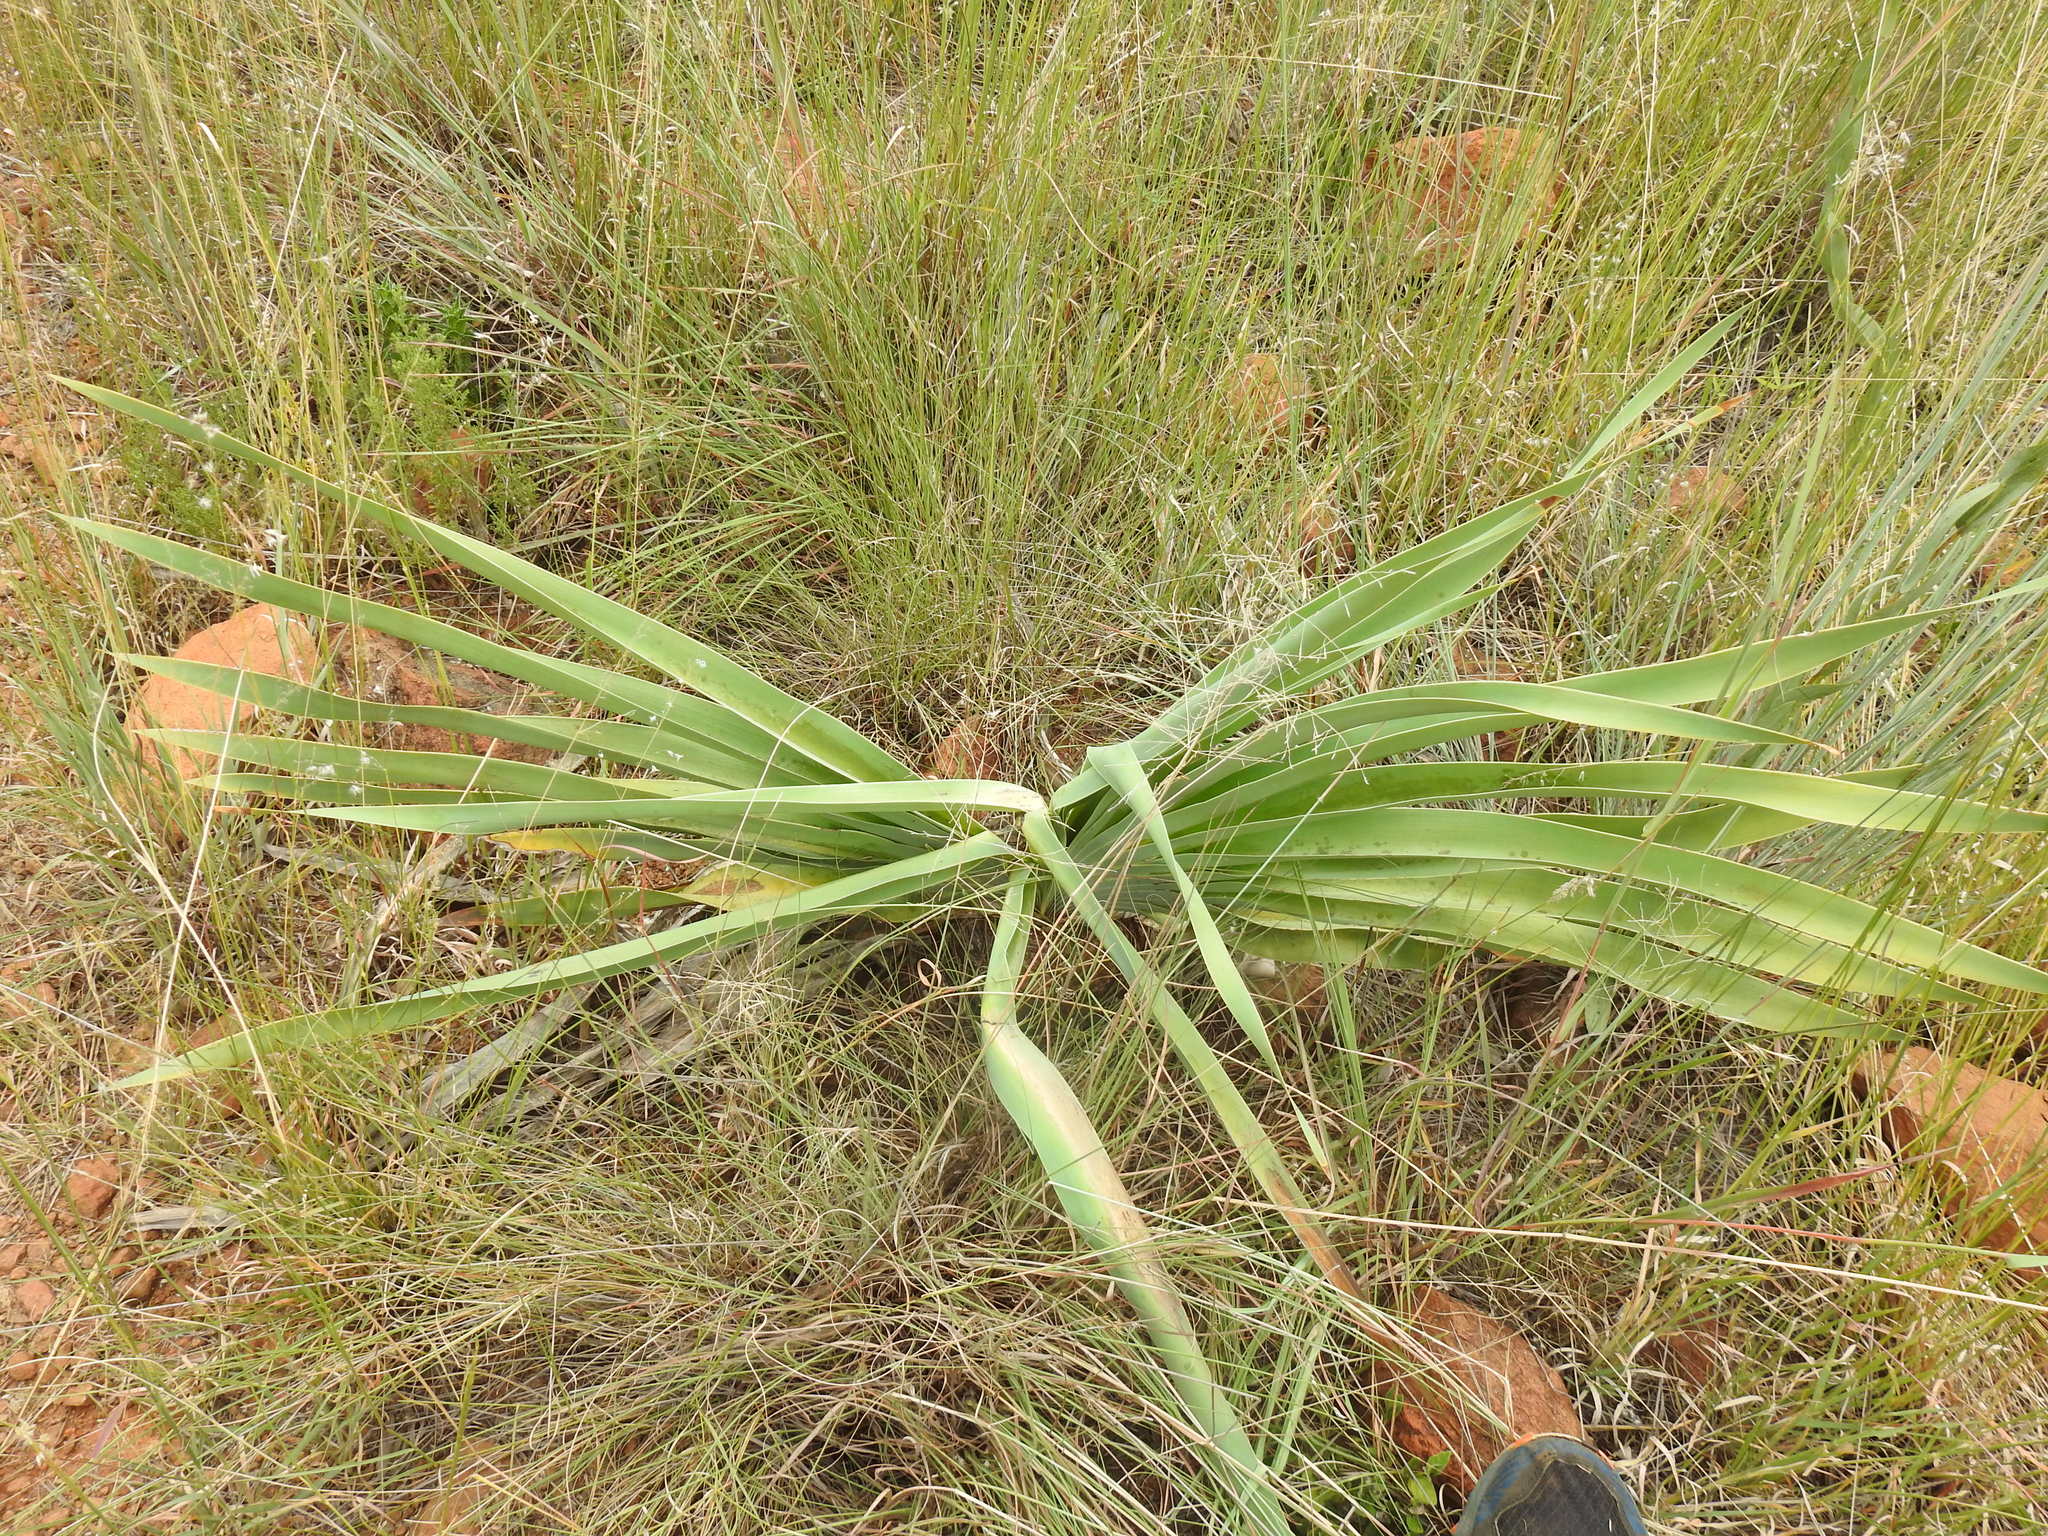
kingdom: Plantae
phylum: Tracheophyta
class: Liliopsida
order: Asparagales
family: Amaryllidaceae
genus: Boophone
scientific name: Boophone disticha
